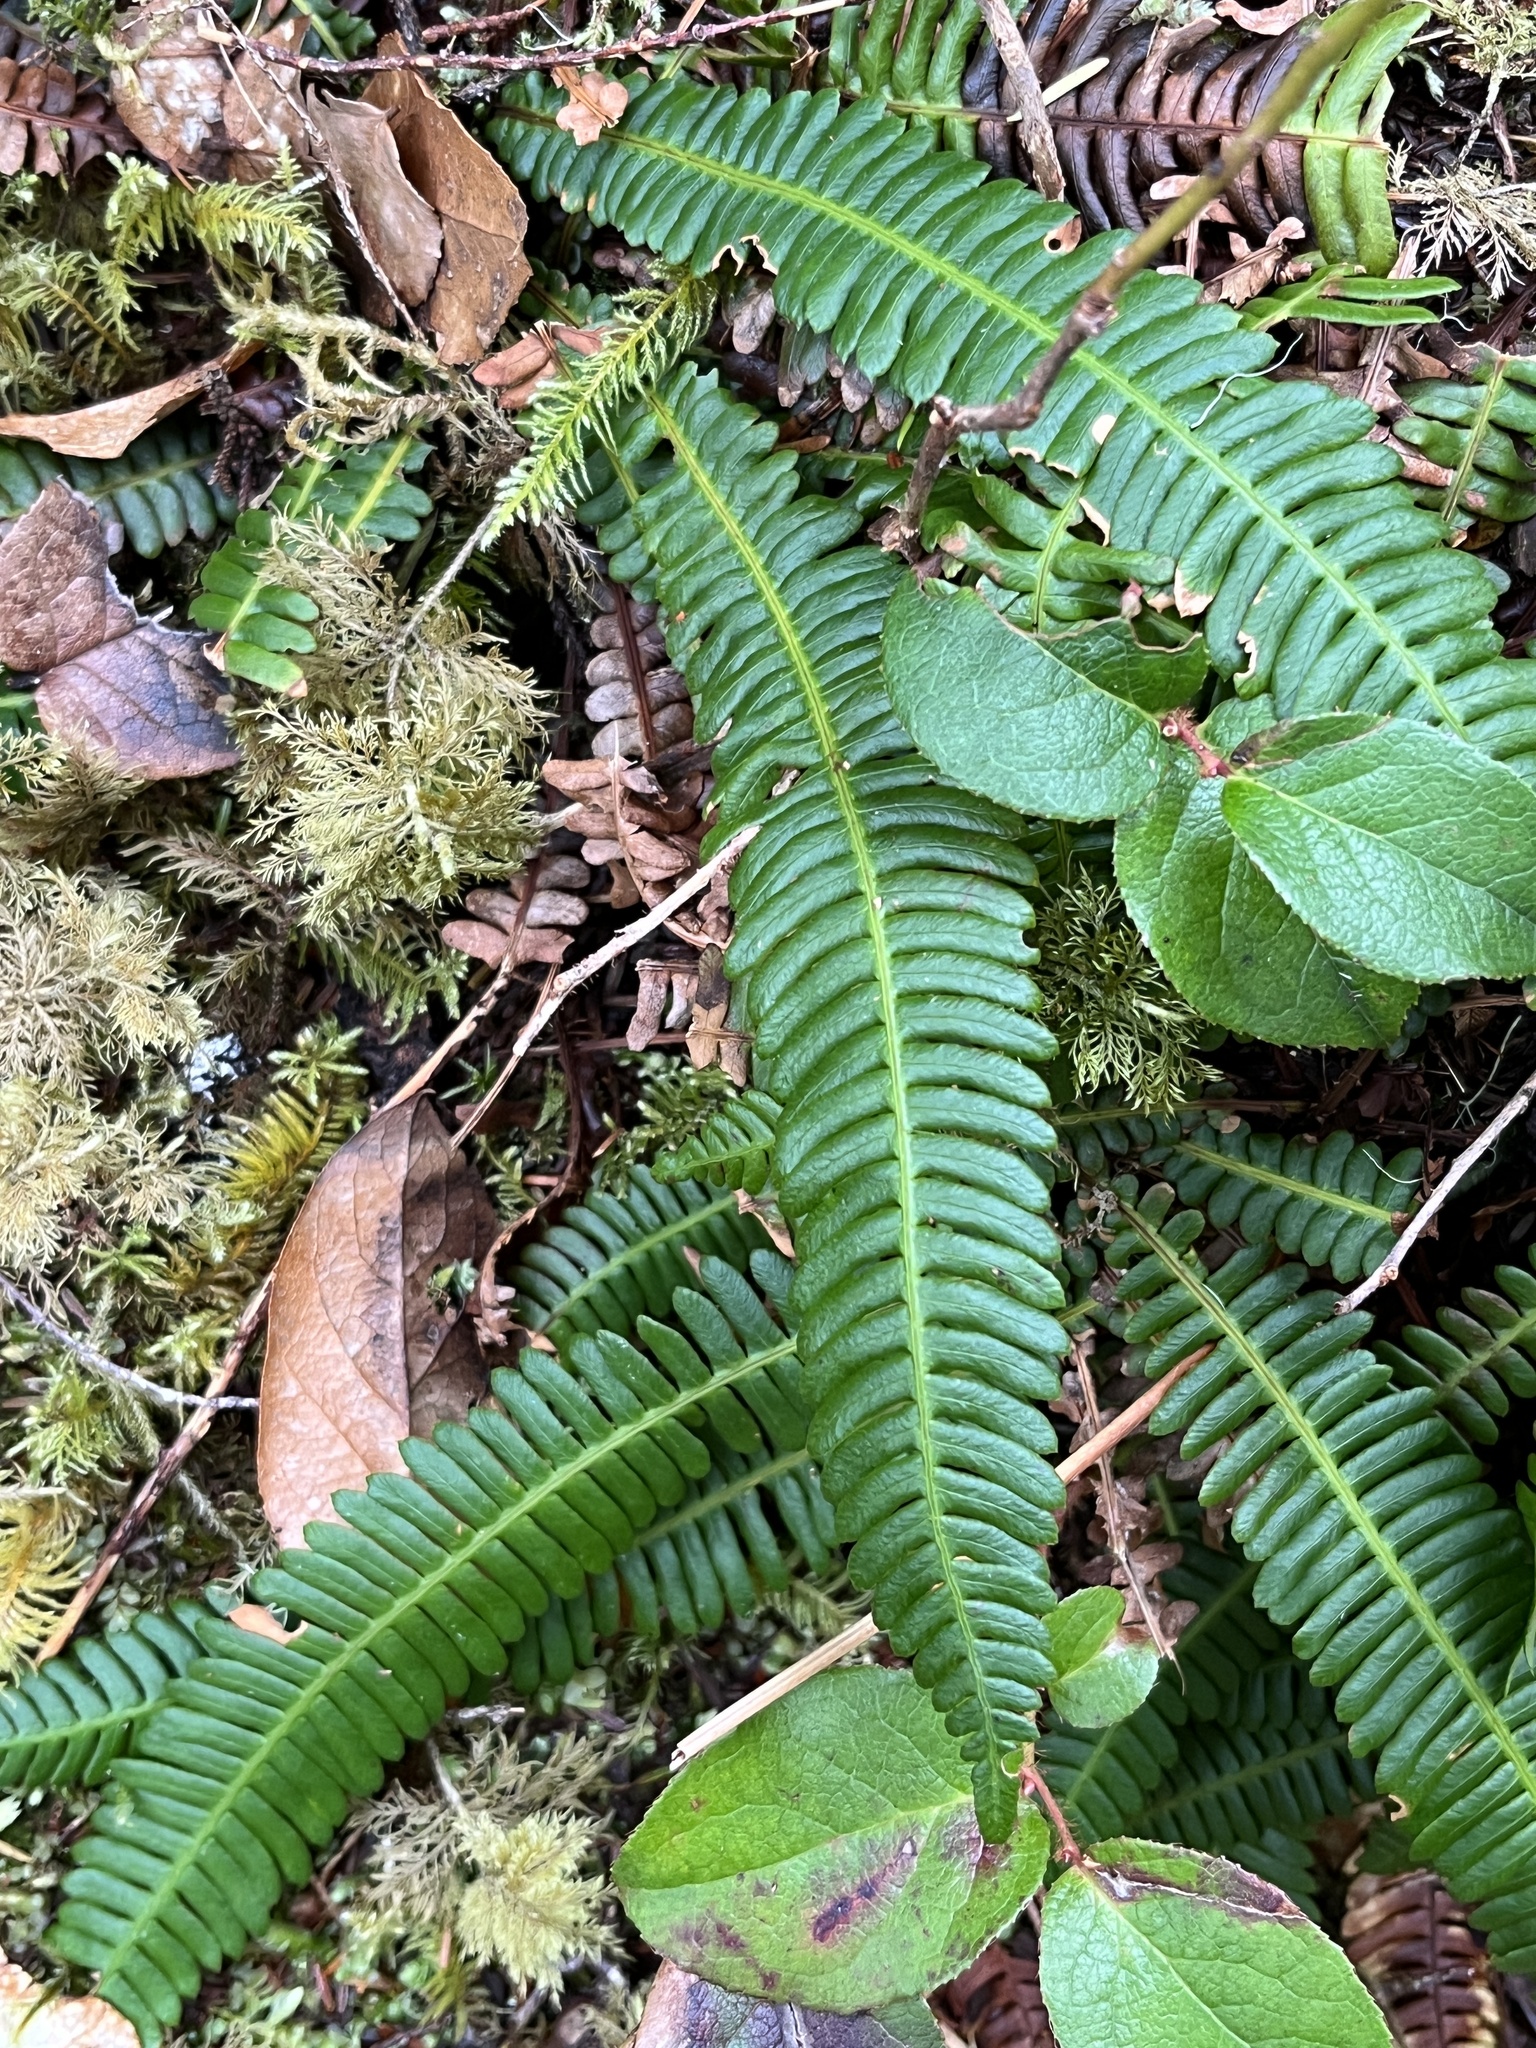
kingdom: Plantae
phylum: Tracheophyta
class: Polypodiopsida
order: Polypodiales
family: Blechnaceae
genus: Struthiopteris
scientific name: Struthiopteris spicant
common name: Deer fern
